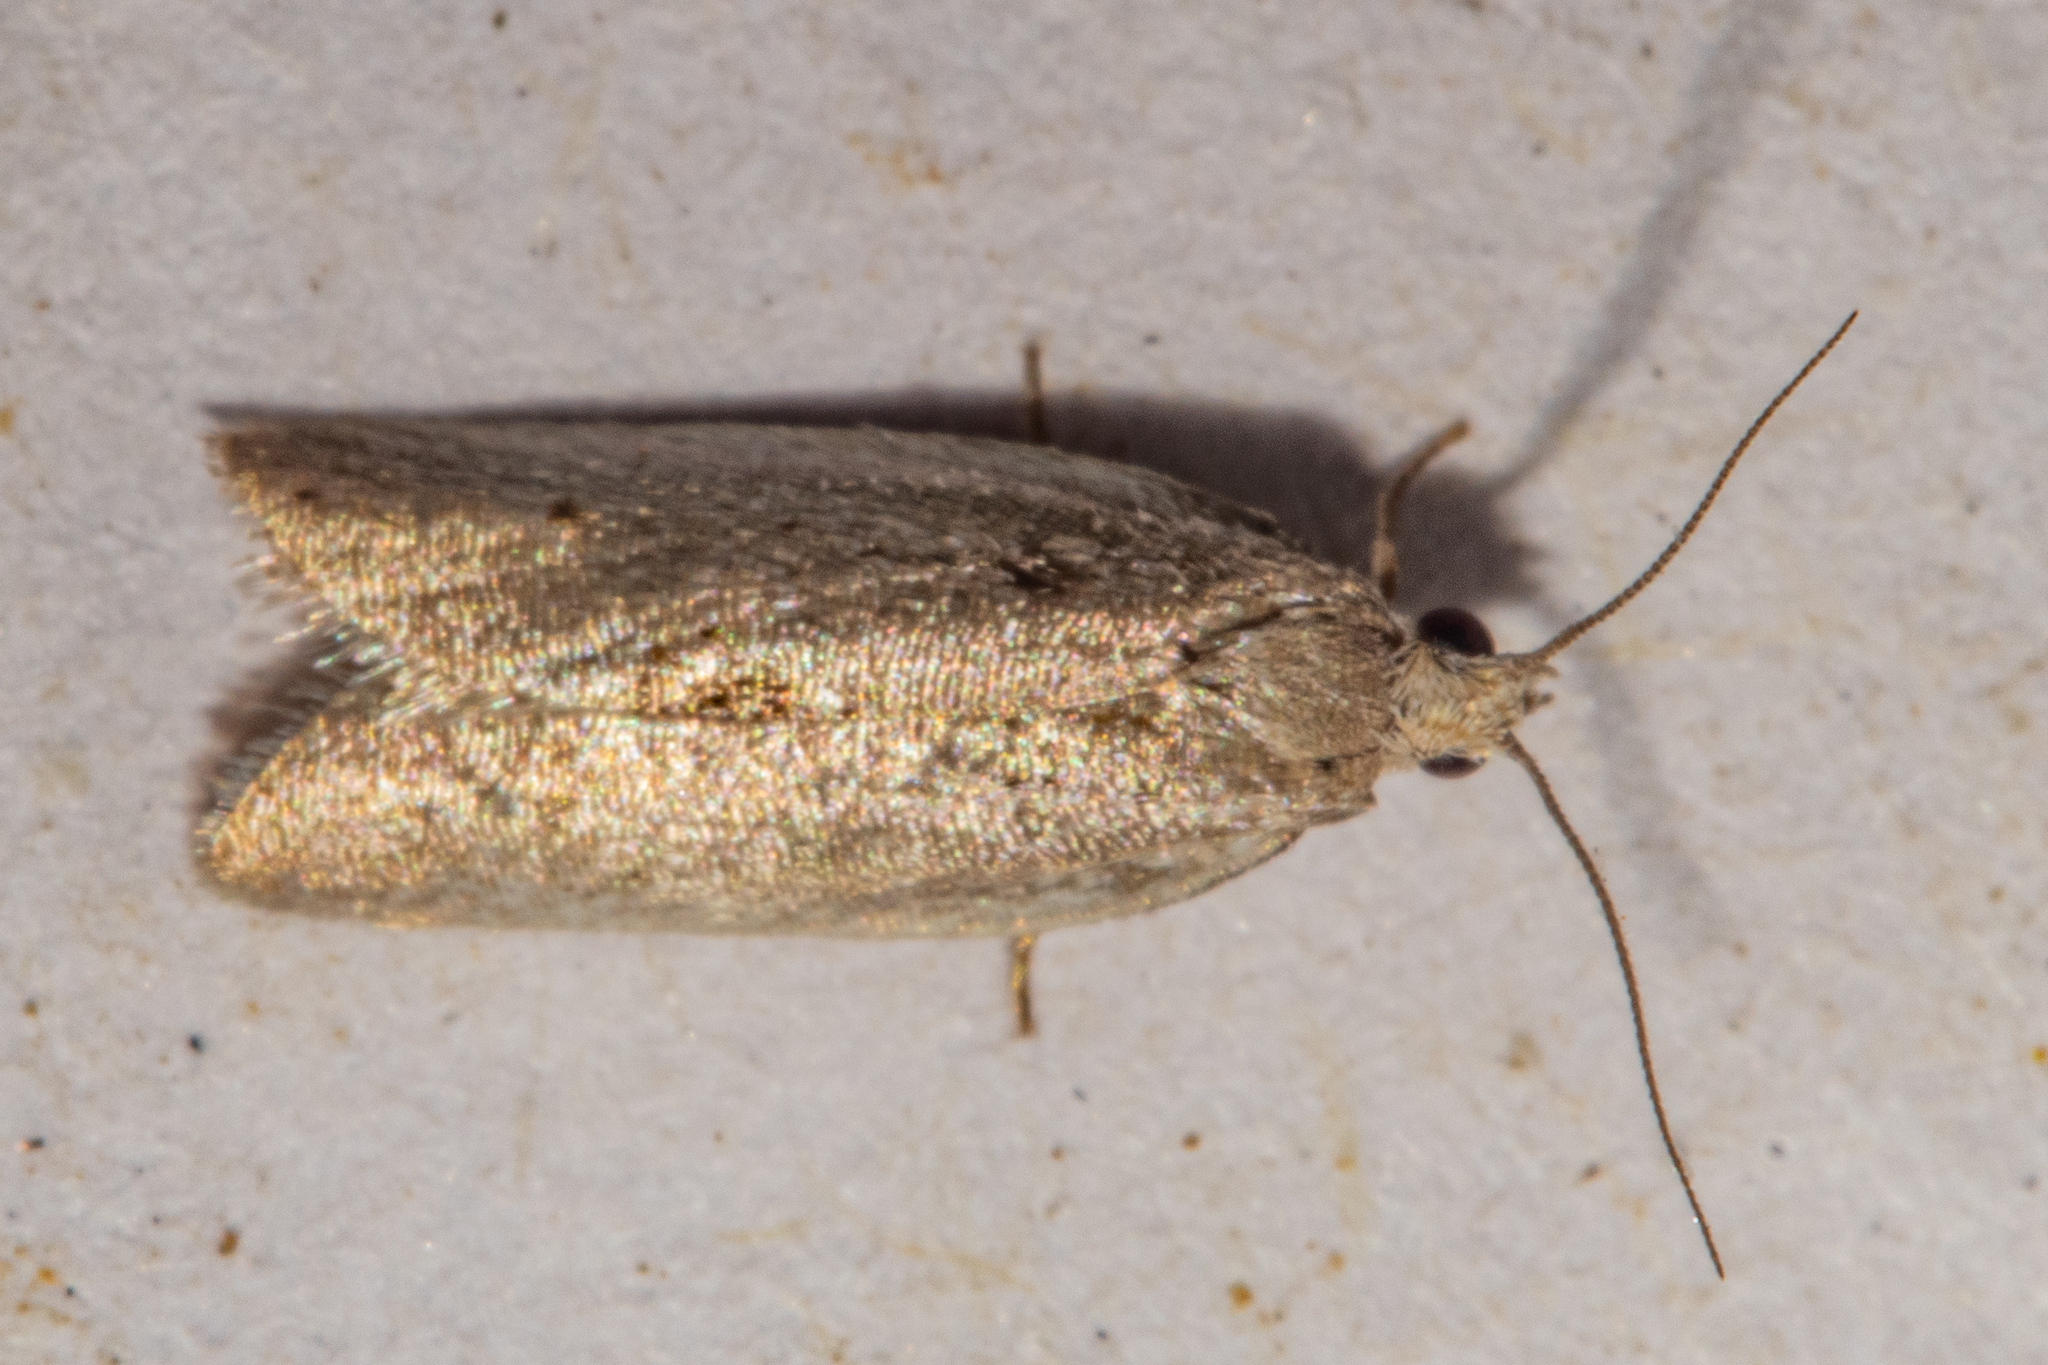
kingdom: Animalia
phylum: Arthropoda
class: Insecta
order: Lepidoptera
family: Tortricidae
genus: Ericodesma
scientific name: Ericodesma cuneata
